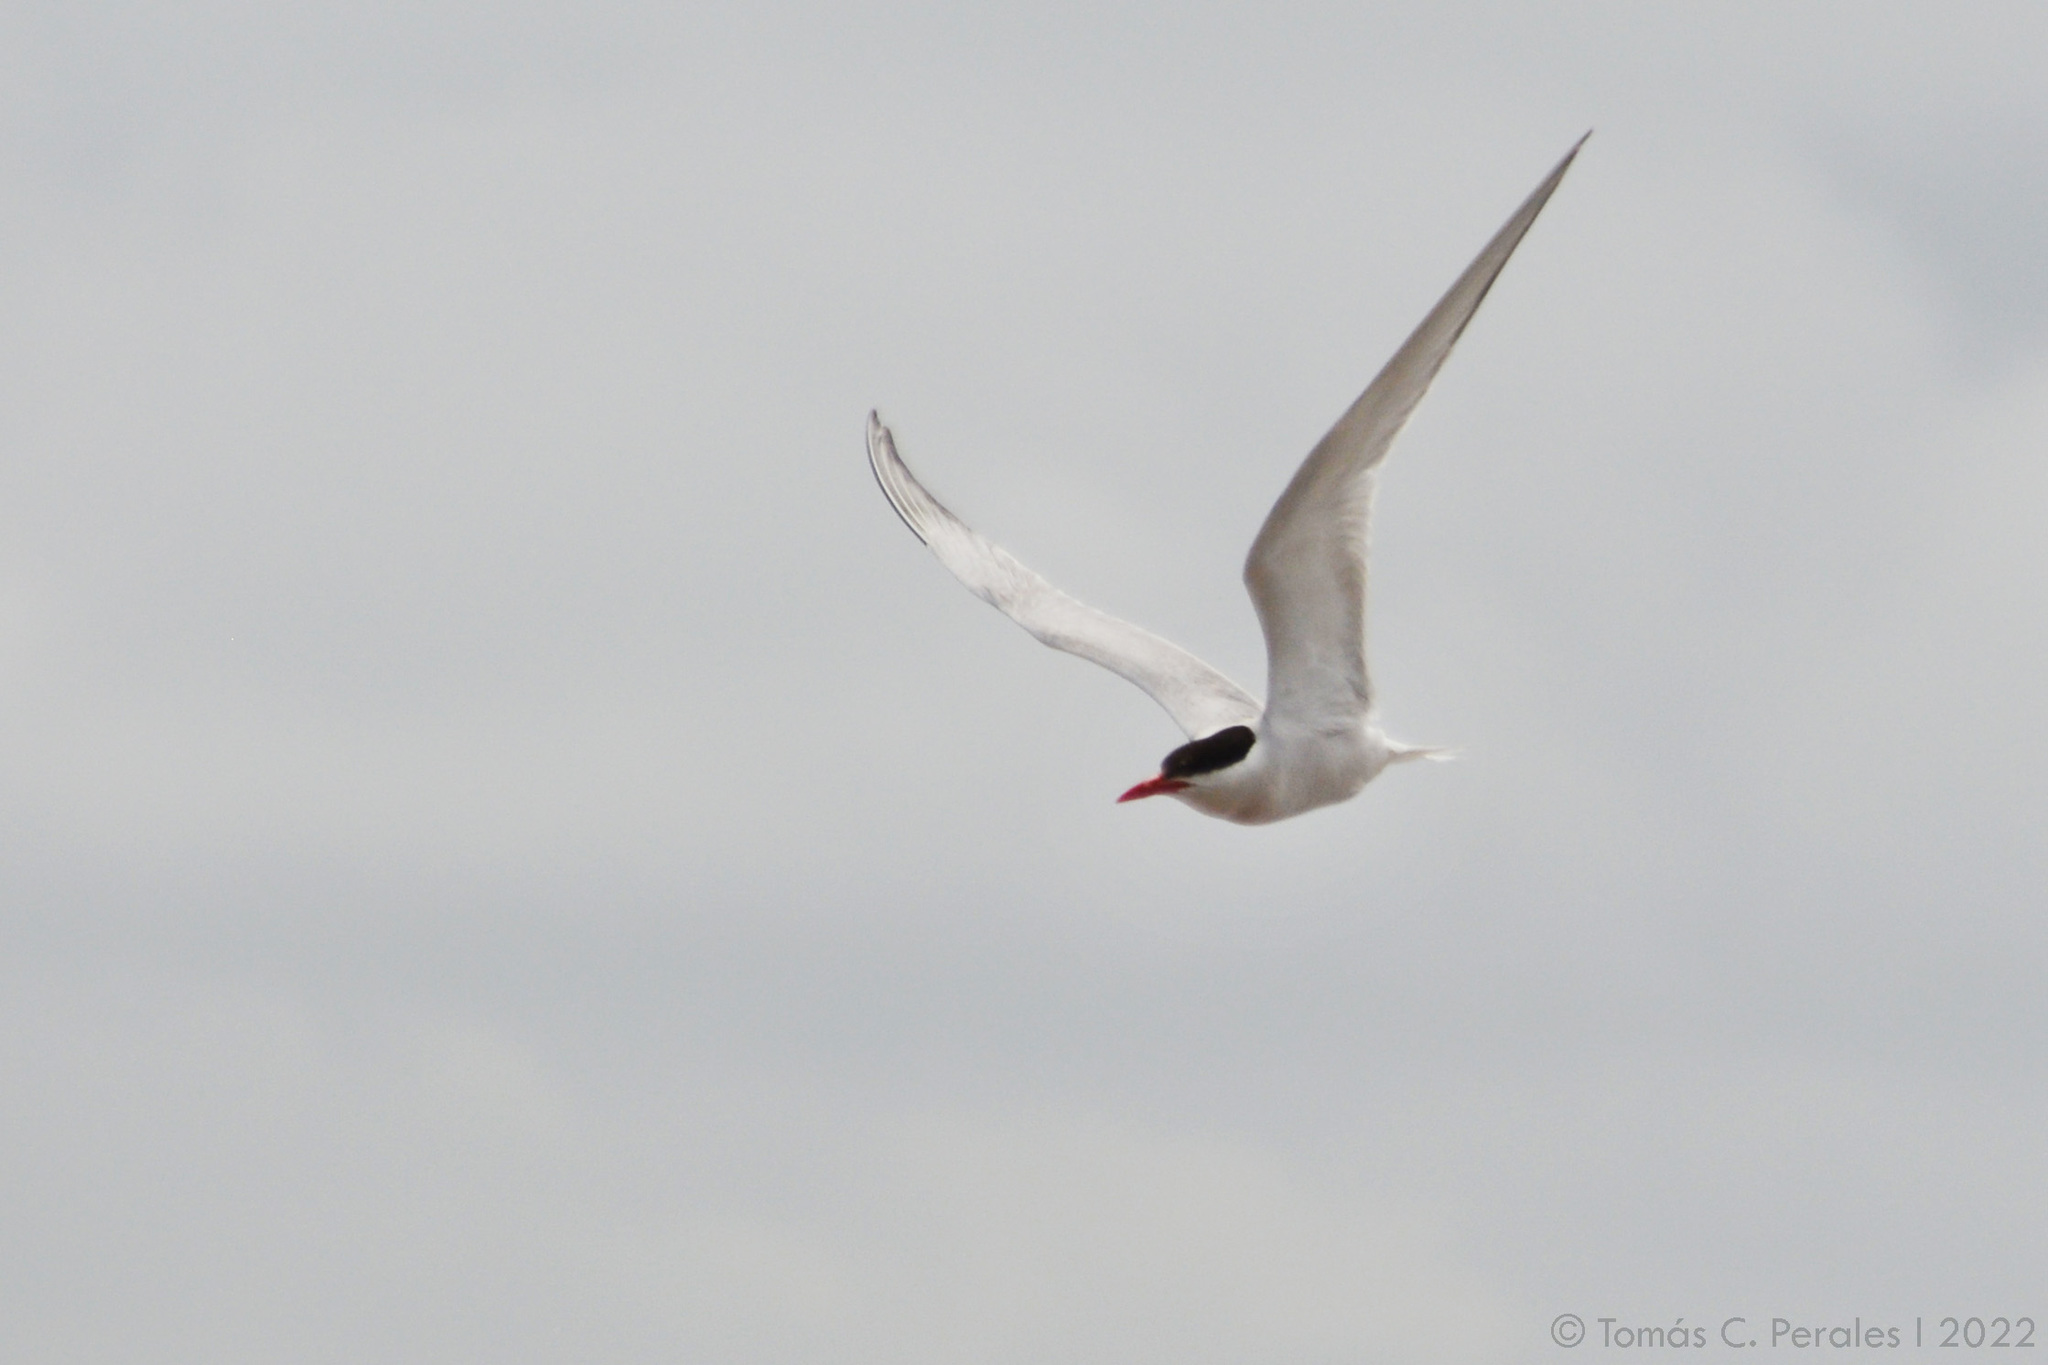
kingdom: Animalia
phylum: Chordata
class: Aves
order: Charadriiformes
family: Laridae
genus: Sterna
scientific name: Sterna hirundinacea
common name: South american tern
